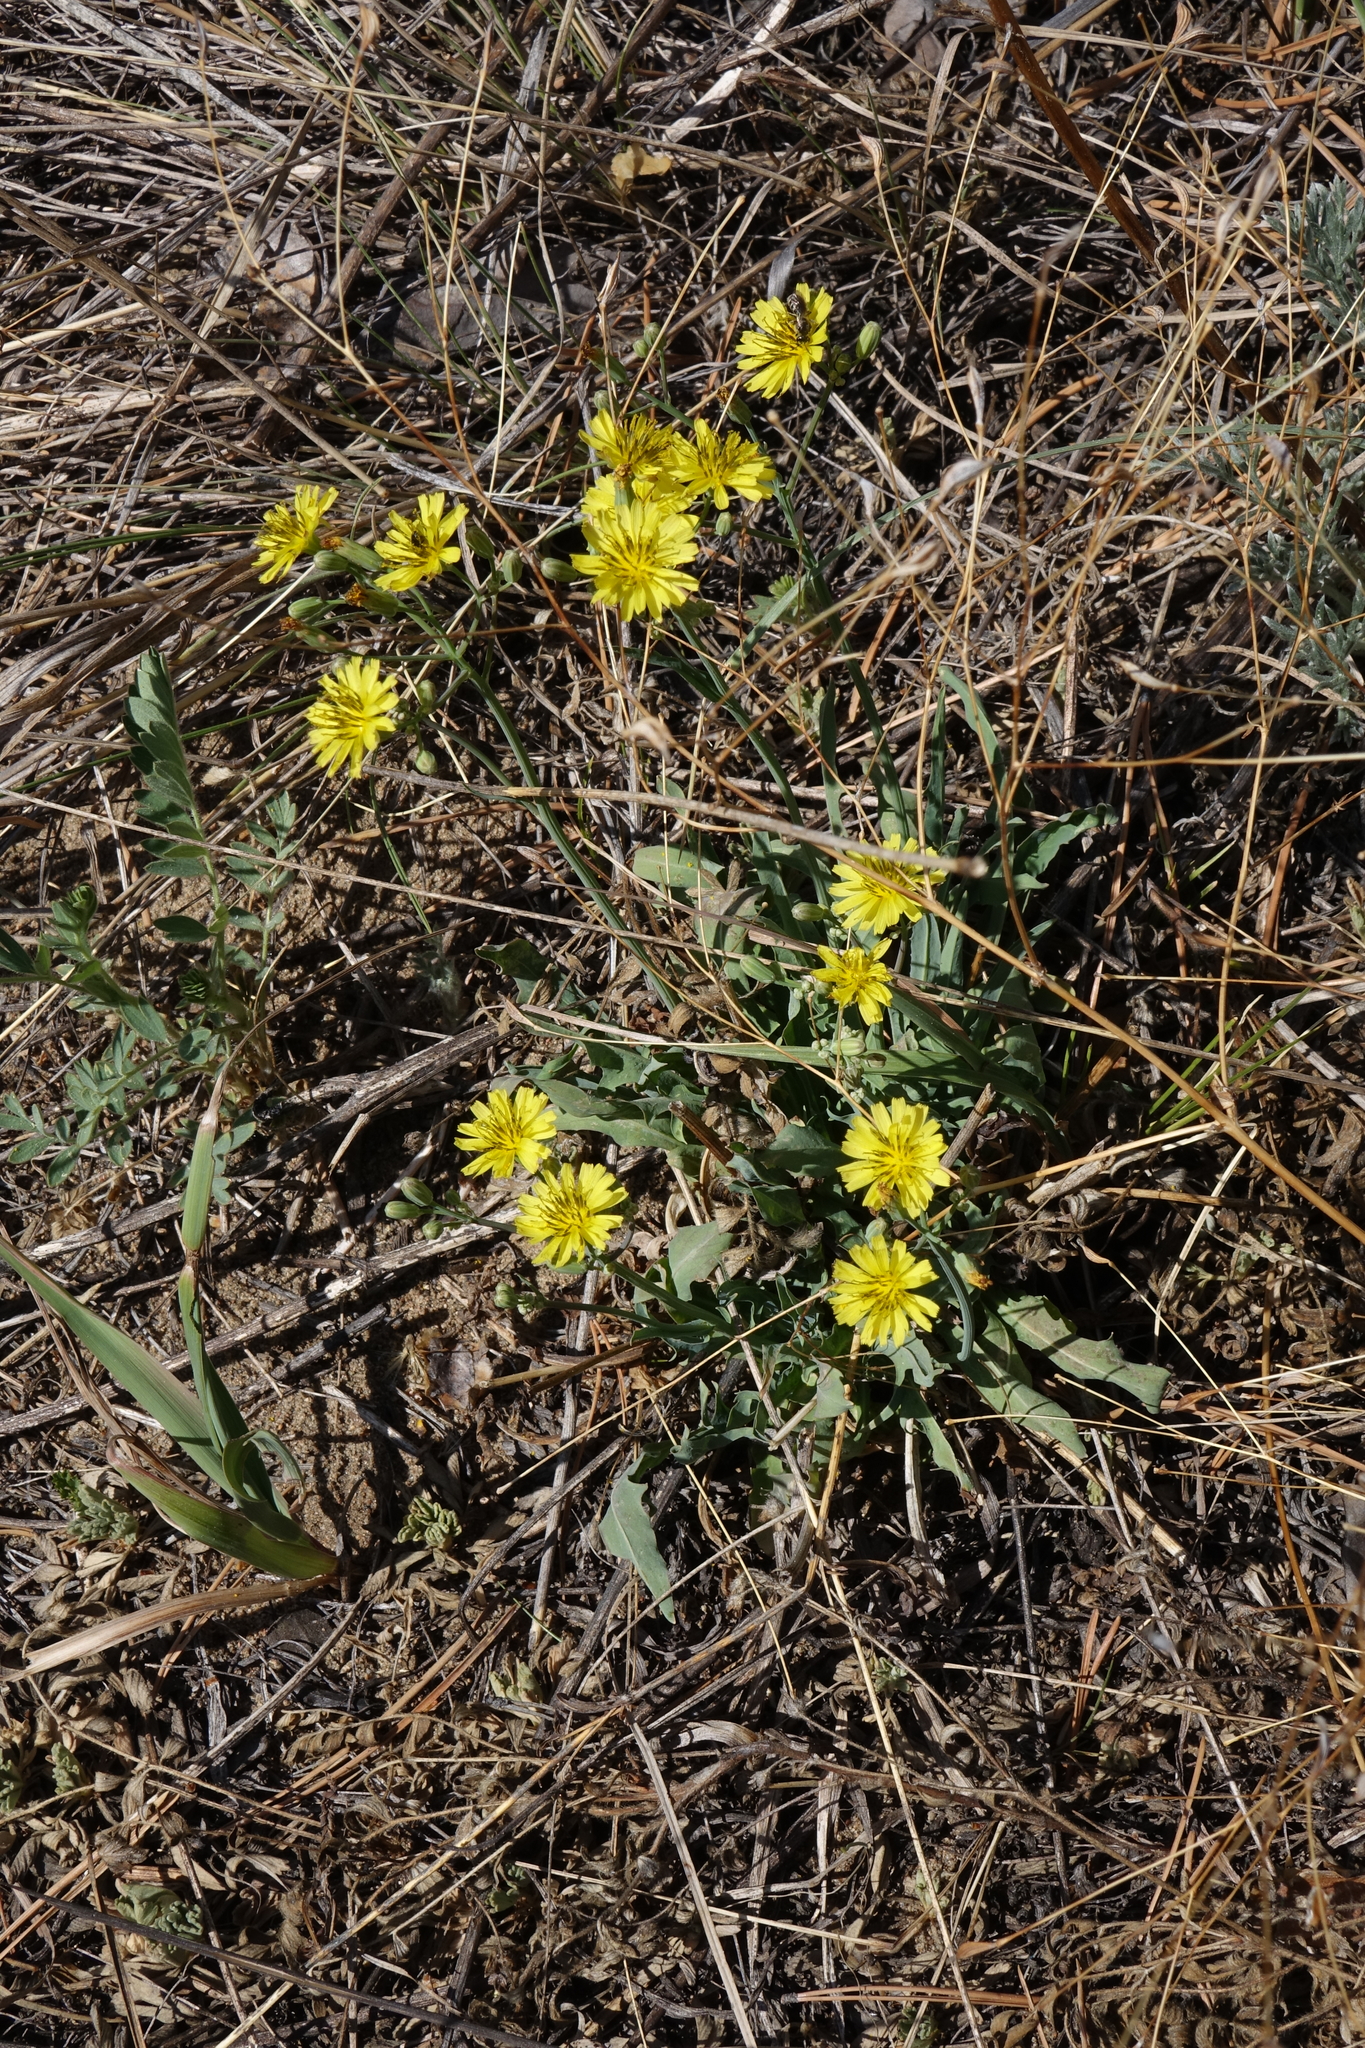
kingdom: Plantae
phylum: Tracheophyta
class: Magnoliopsida
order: Asterales
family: Asteraceae
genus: Ixeris
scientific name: Ixeris chinensis
